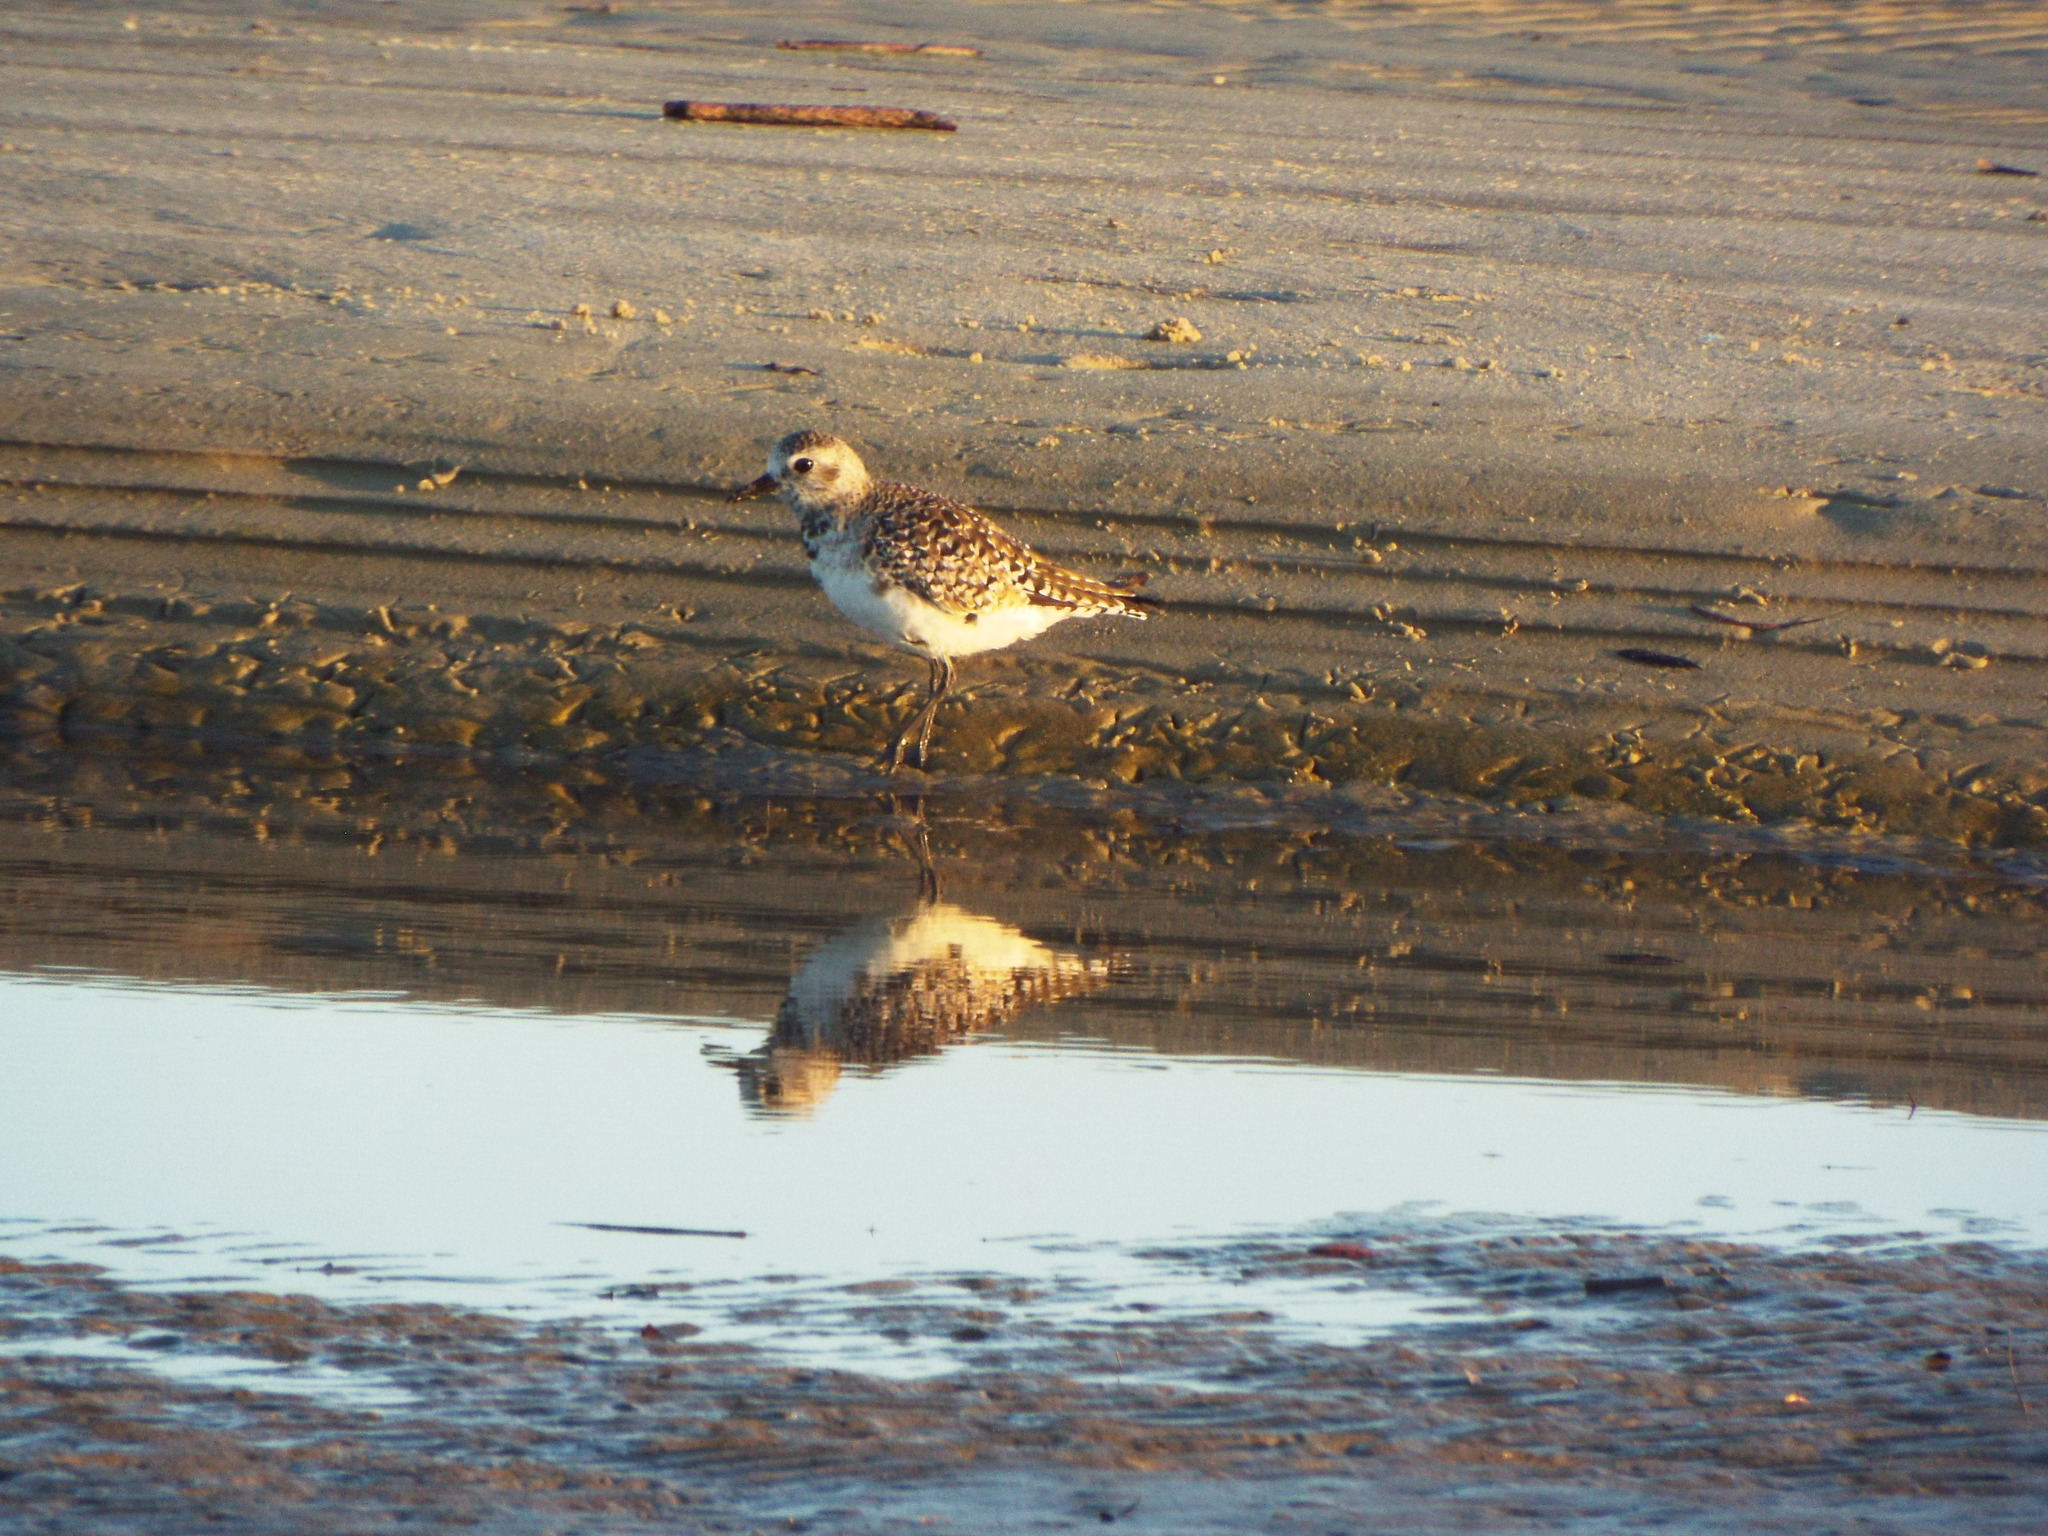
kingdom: Animalia
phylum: Chordata
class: Aves
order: Charadriiformes
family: Charadriidae
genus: Pluvialis
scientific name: Pluvialis squatarola
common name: Grey plover
